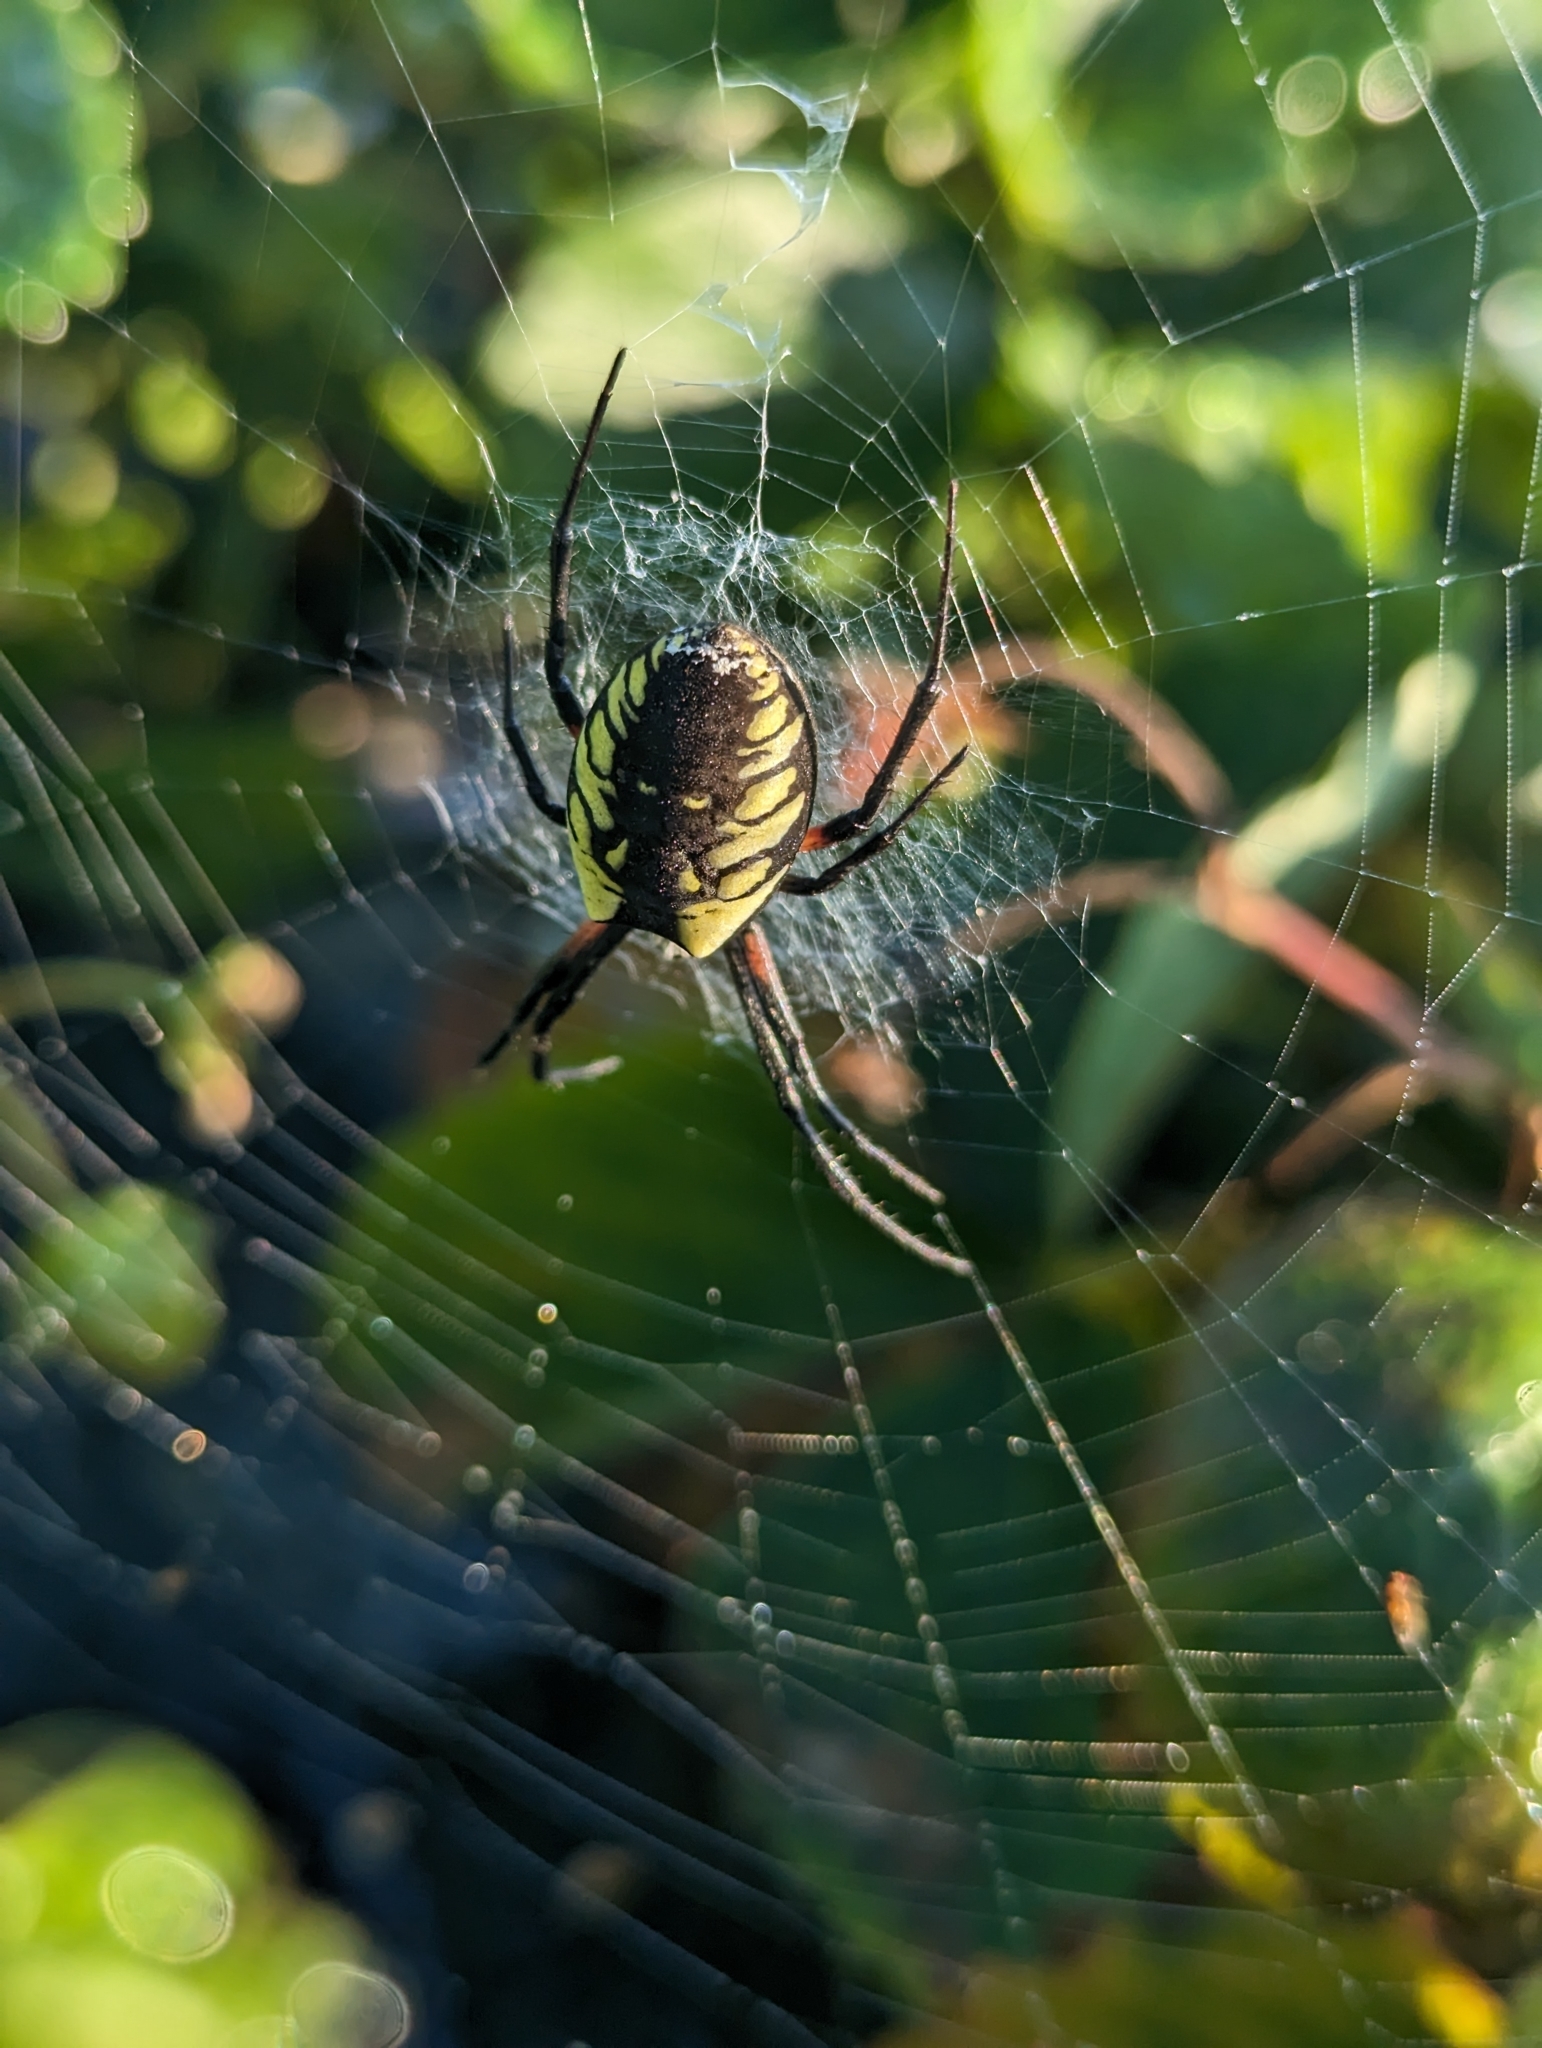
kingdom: Animalia
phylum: Arthropoda
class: Arachnida
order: Araneae
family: Araneidae
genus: Argiope
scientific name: Argiope aurantia
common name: Orb weavers
